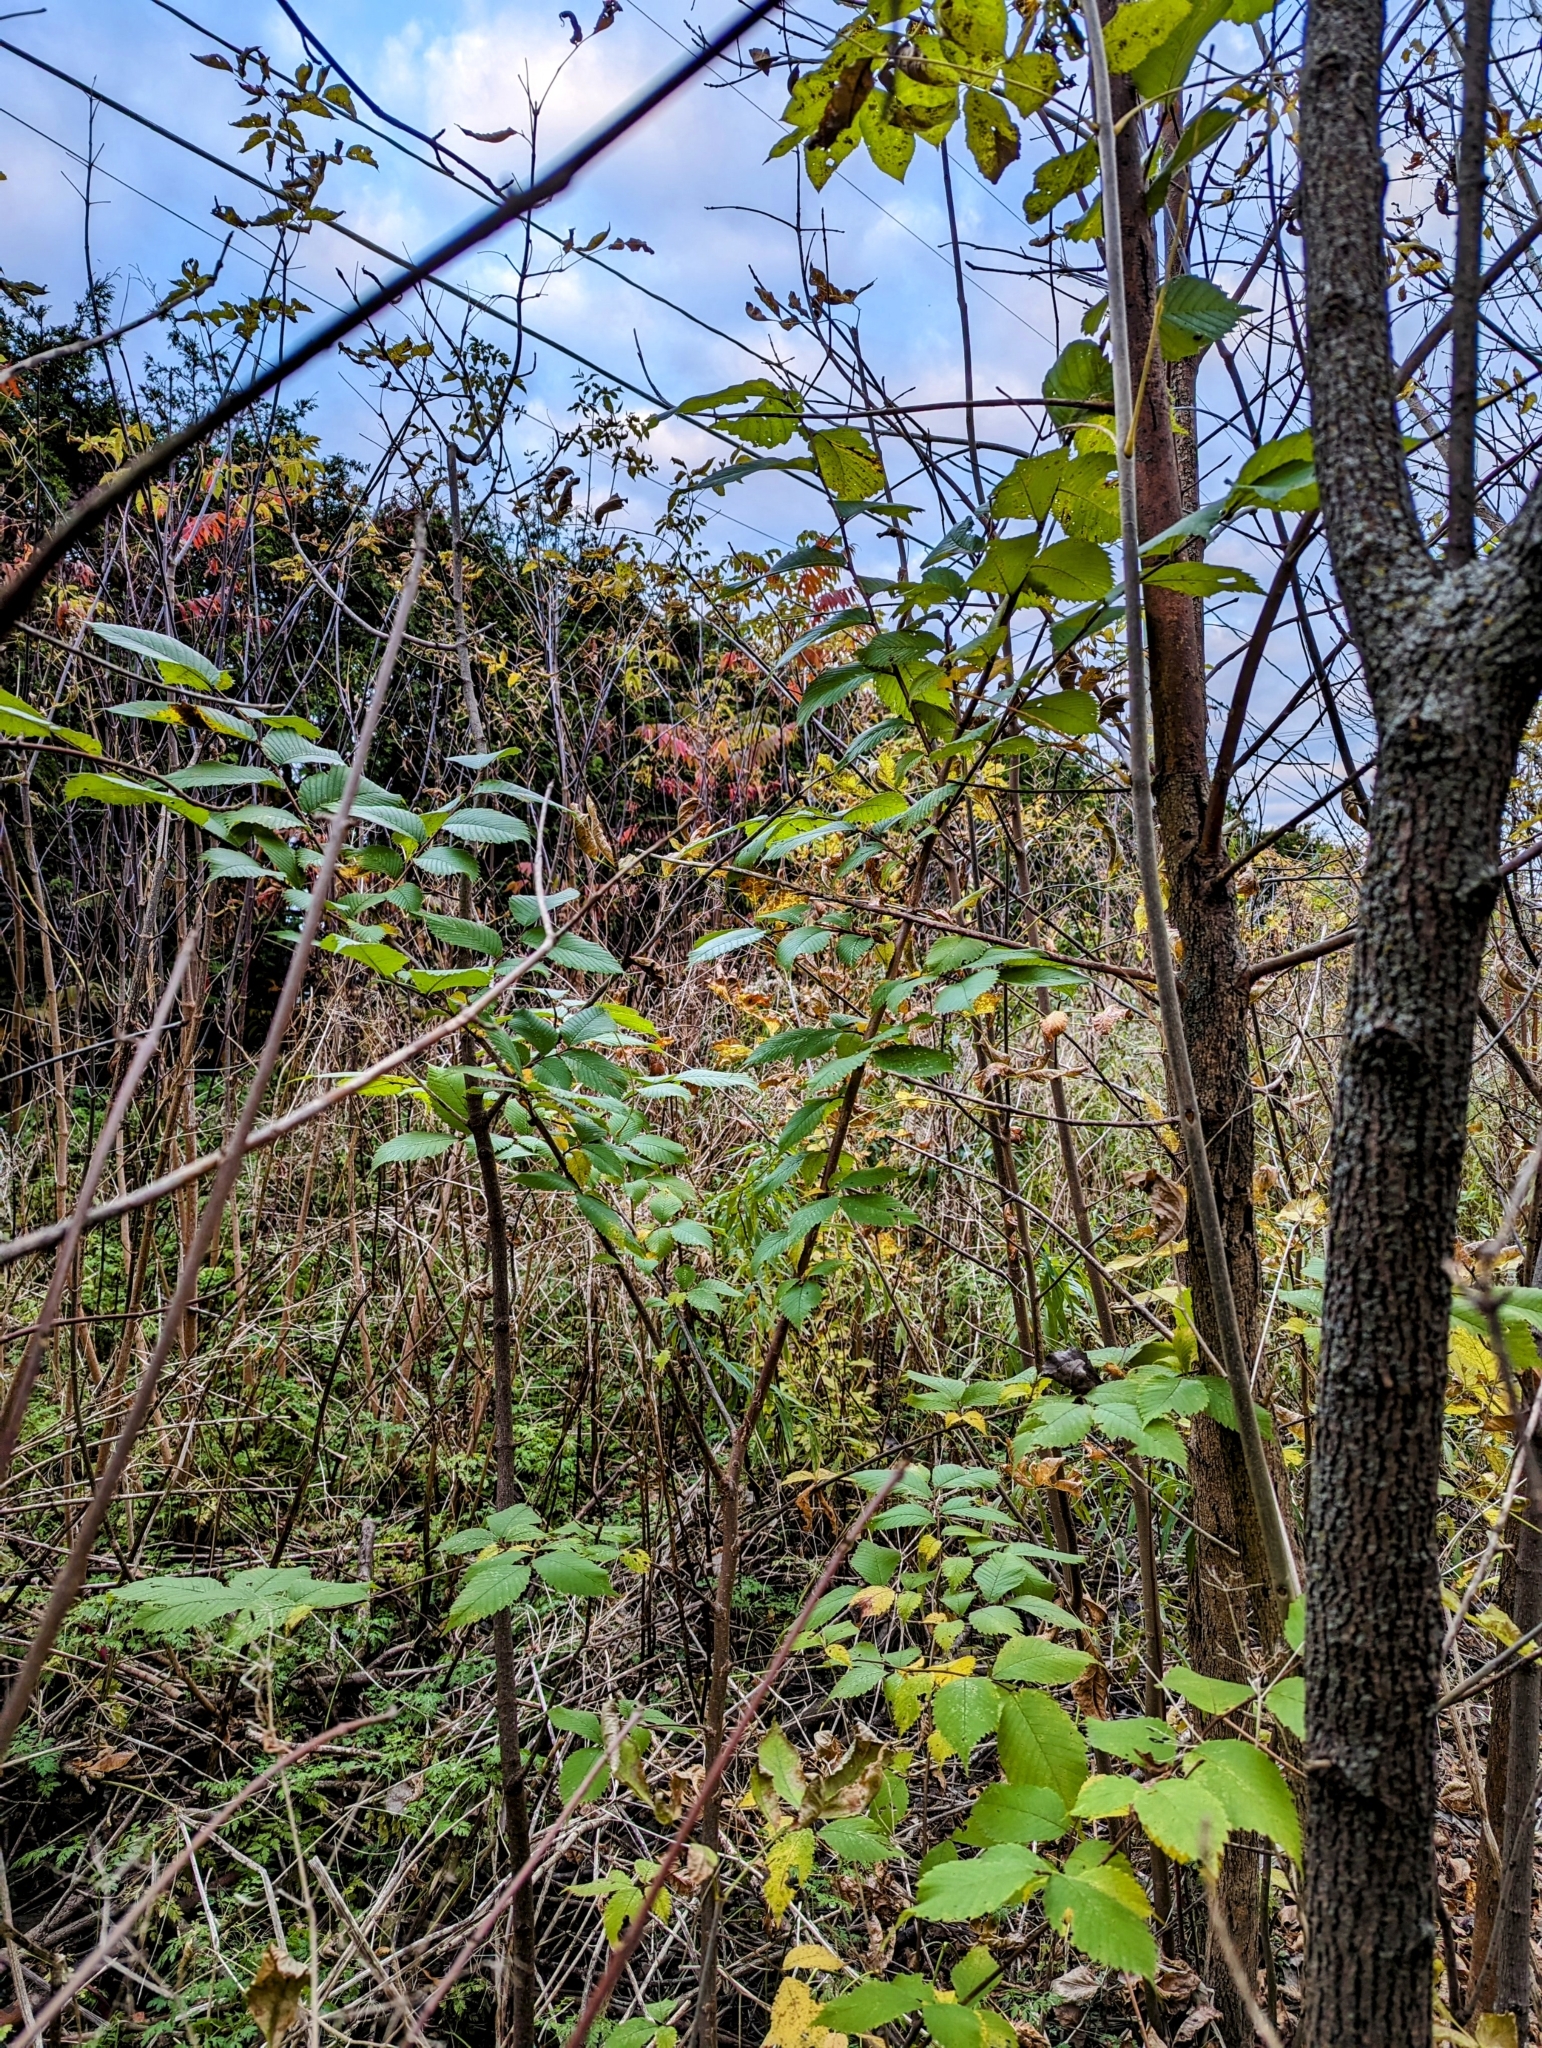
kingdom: Plantae
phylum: Tracheophyta
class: Magnoliopsida
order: Rosales
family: Ulmaceae
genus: Ulmus
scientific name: Ulmus americana
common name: American elm
